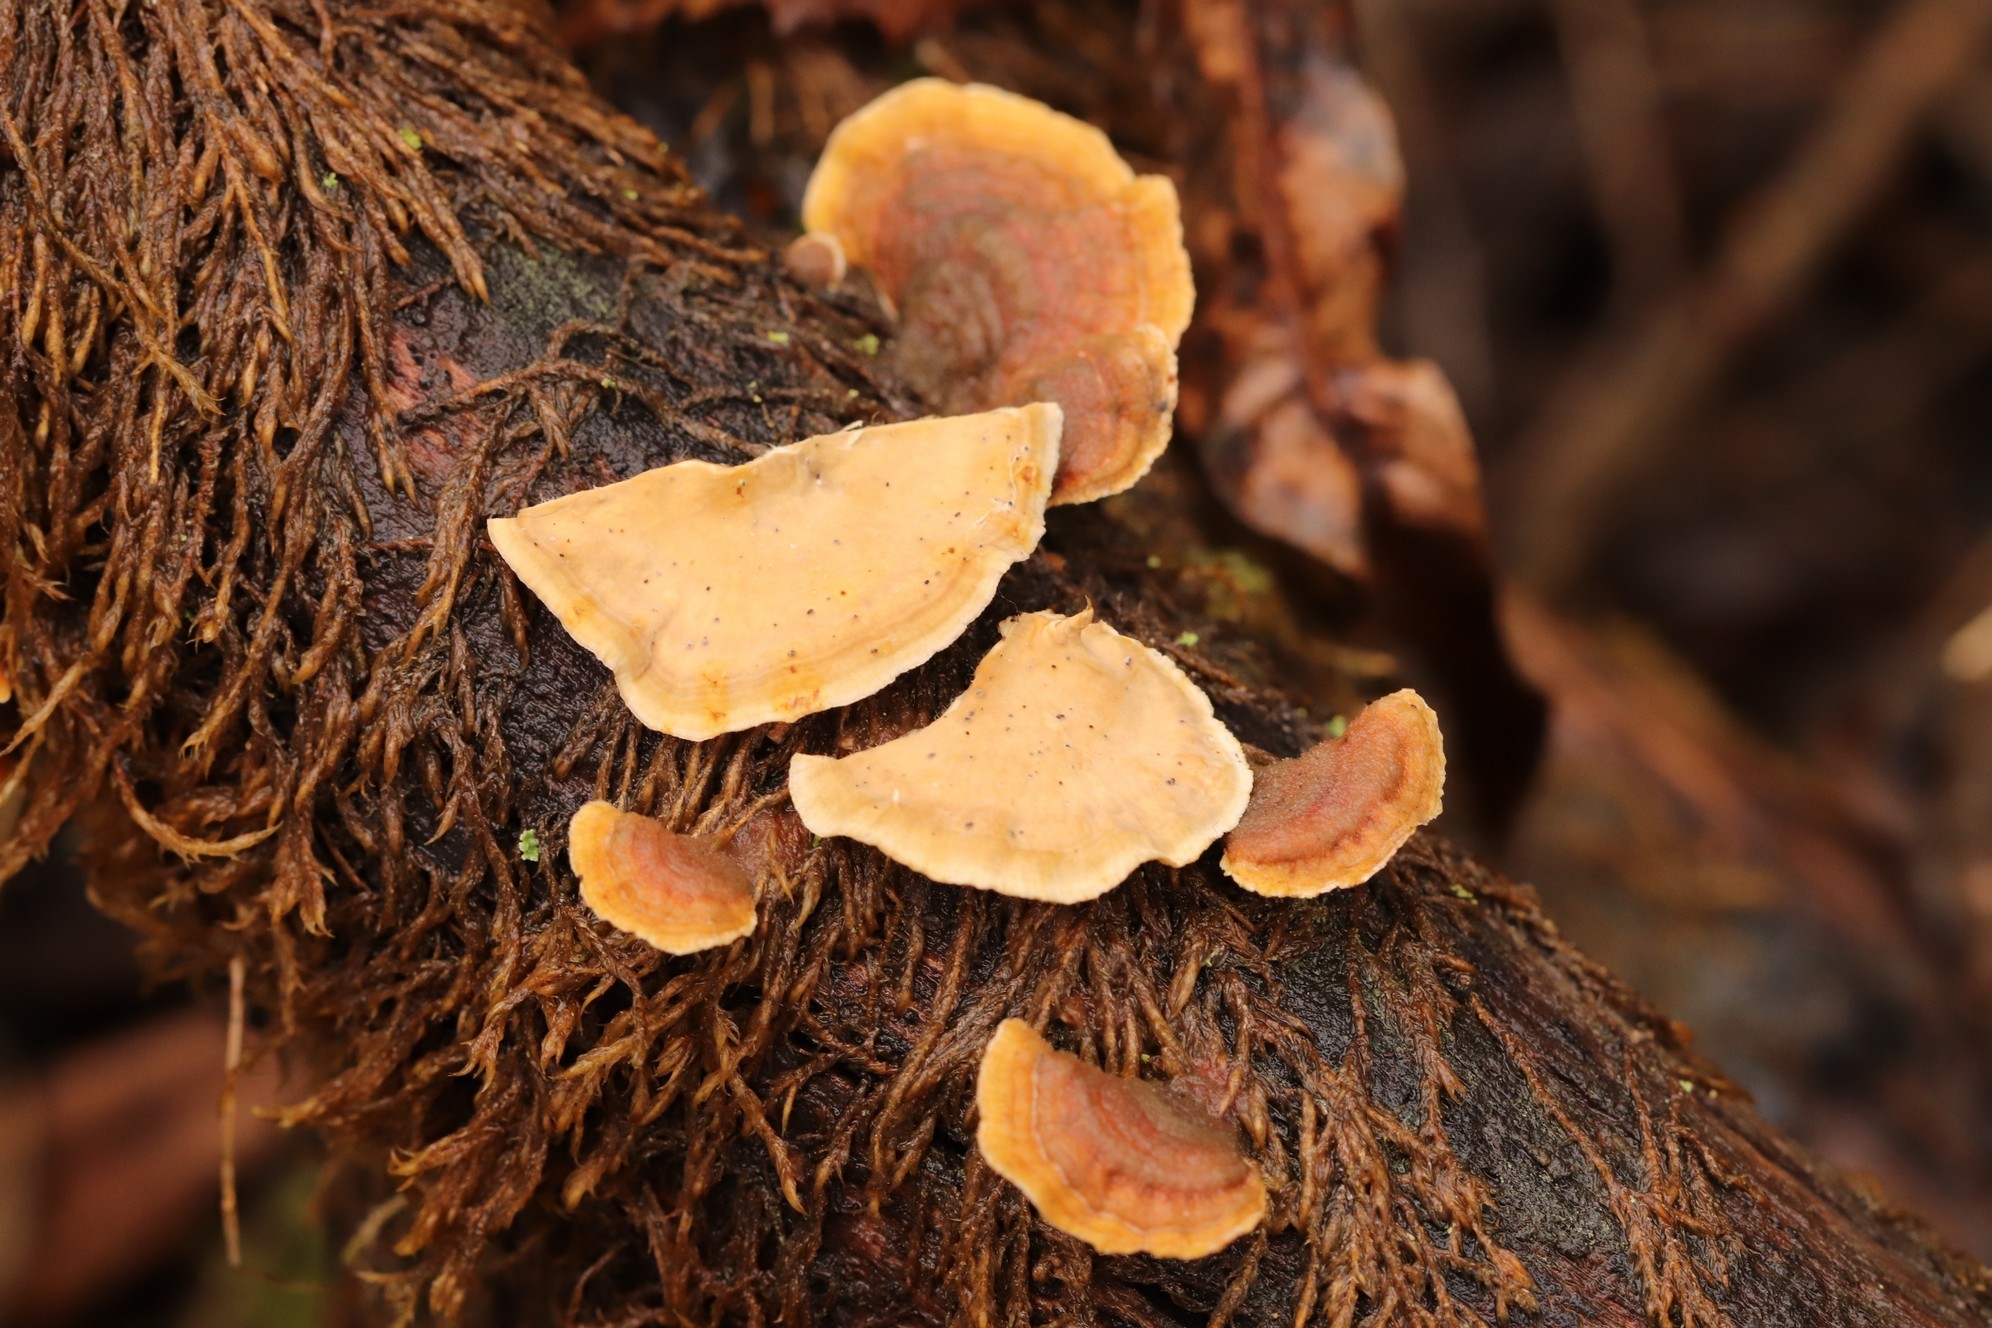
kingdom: Fungi
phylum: Basidiomycota
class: Agaricomycetes
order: Russulales
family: Stereaceae
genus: Stereum
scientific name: Stereum hirsutum
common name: Hairy curtain crust
